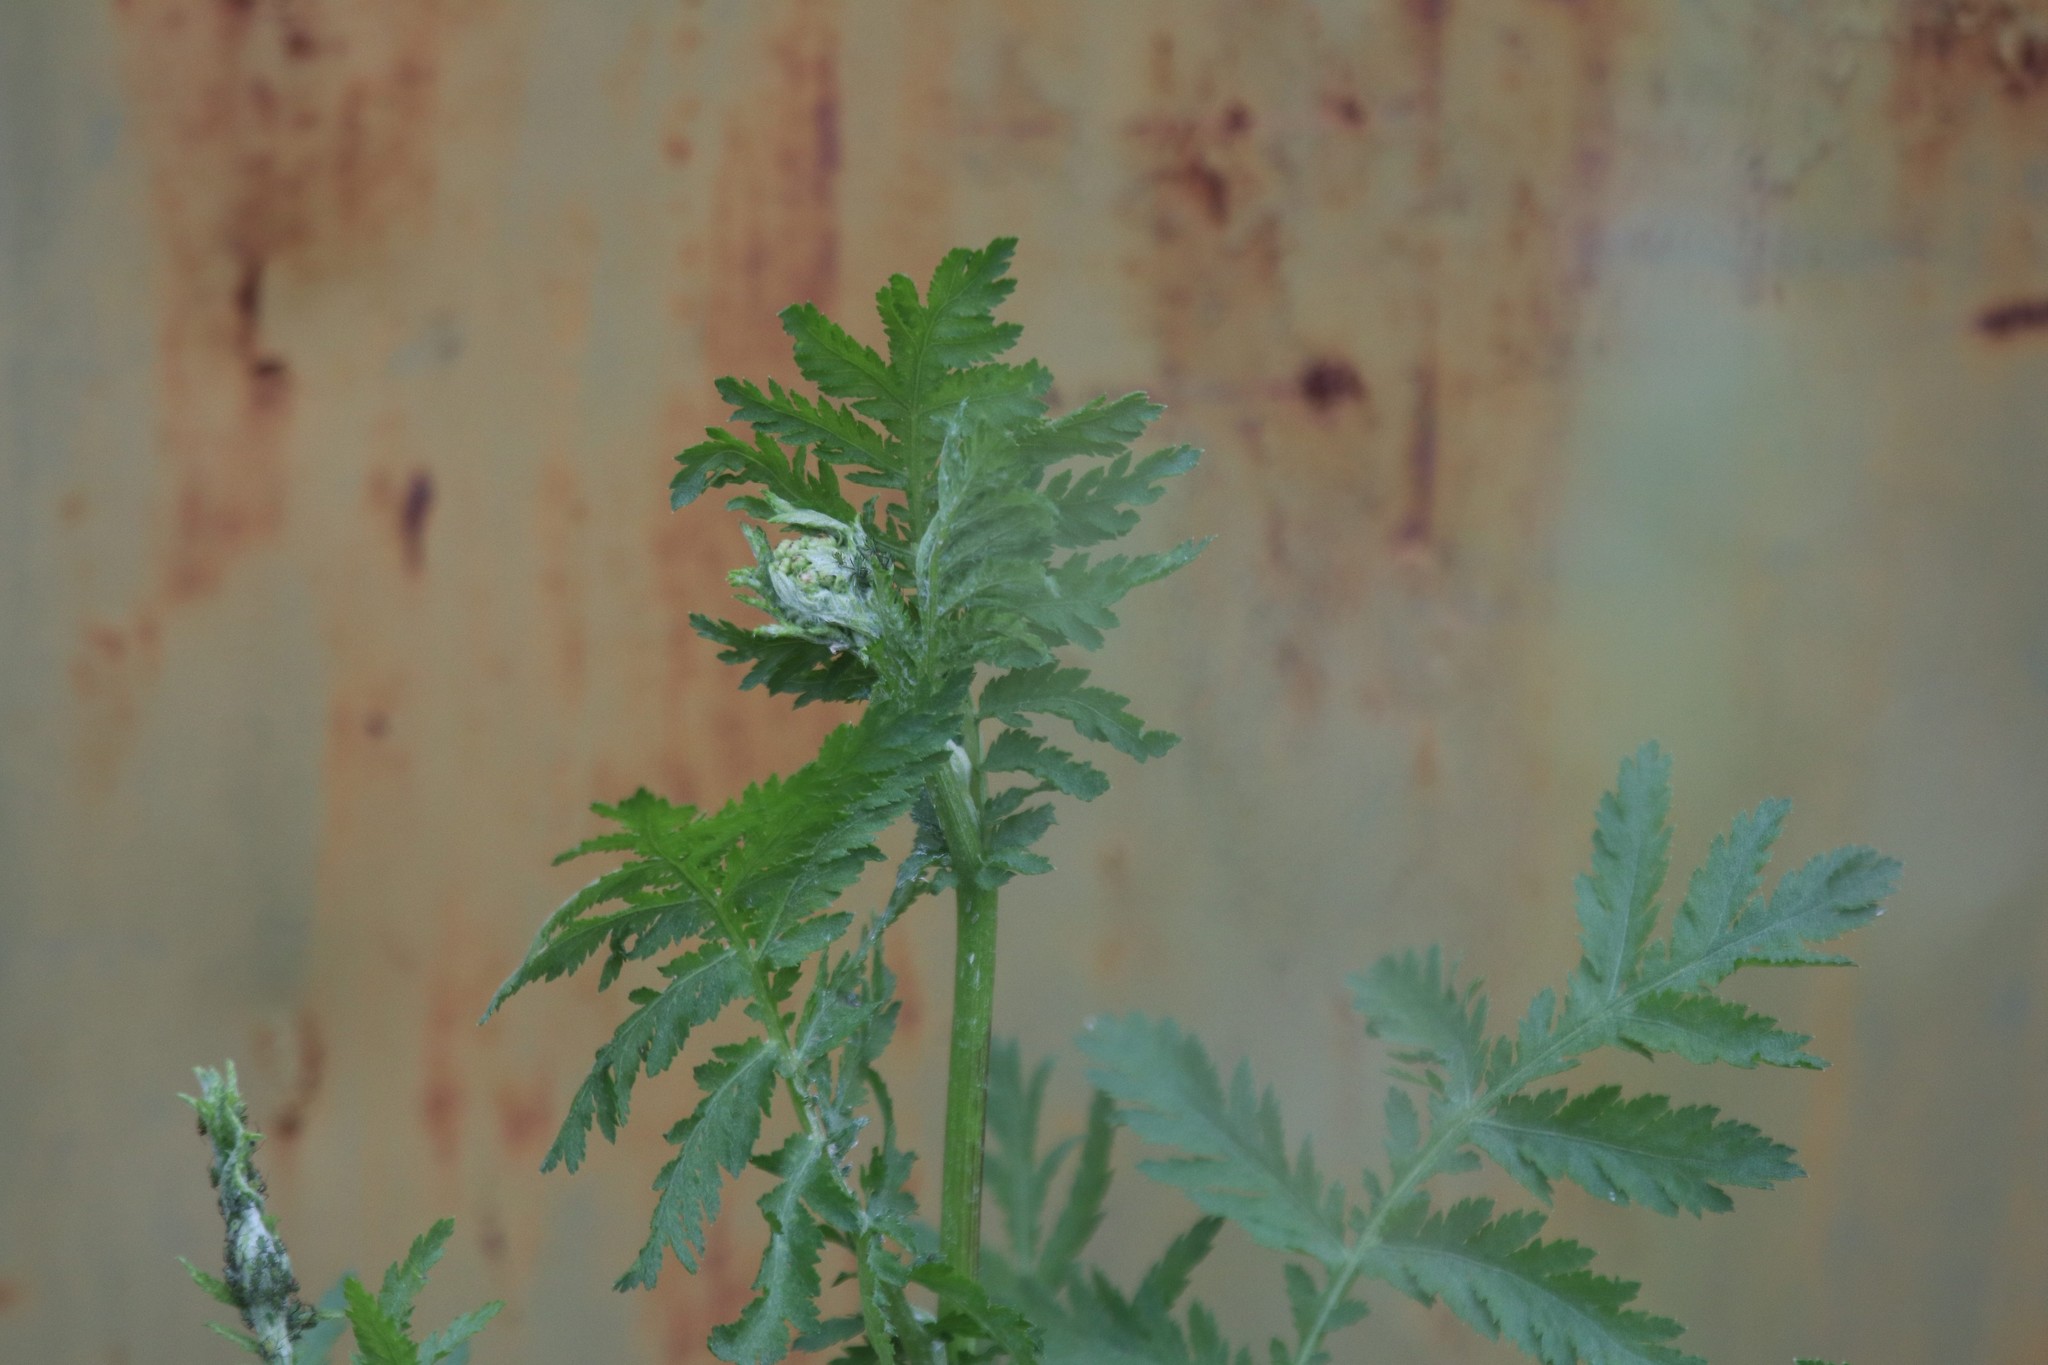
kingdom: Plantae
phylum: Tracheophyta
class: Magnoliopsida
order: Asterales
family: Asteraceae
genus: Tanacetum
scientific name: Tanacetum vulgare
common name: Common tansy
